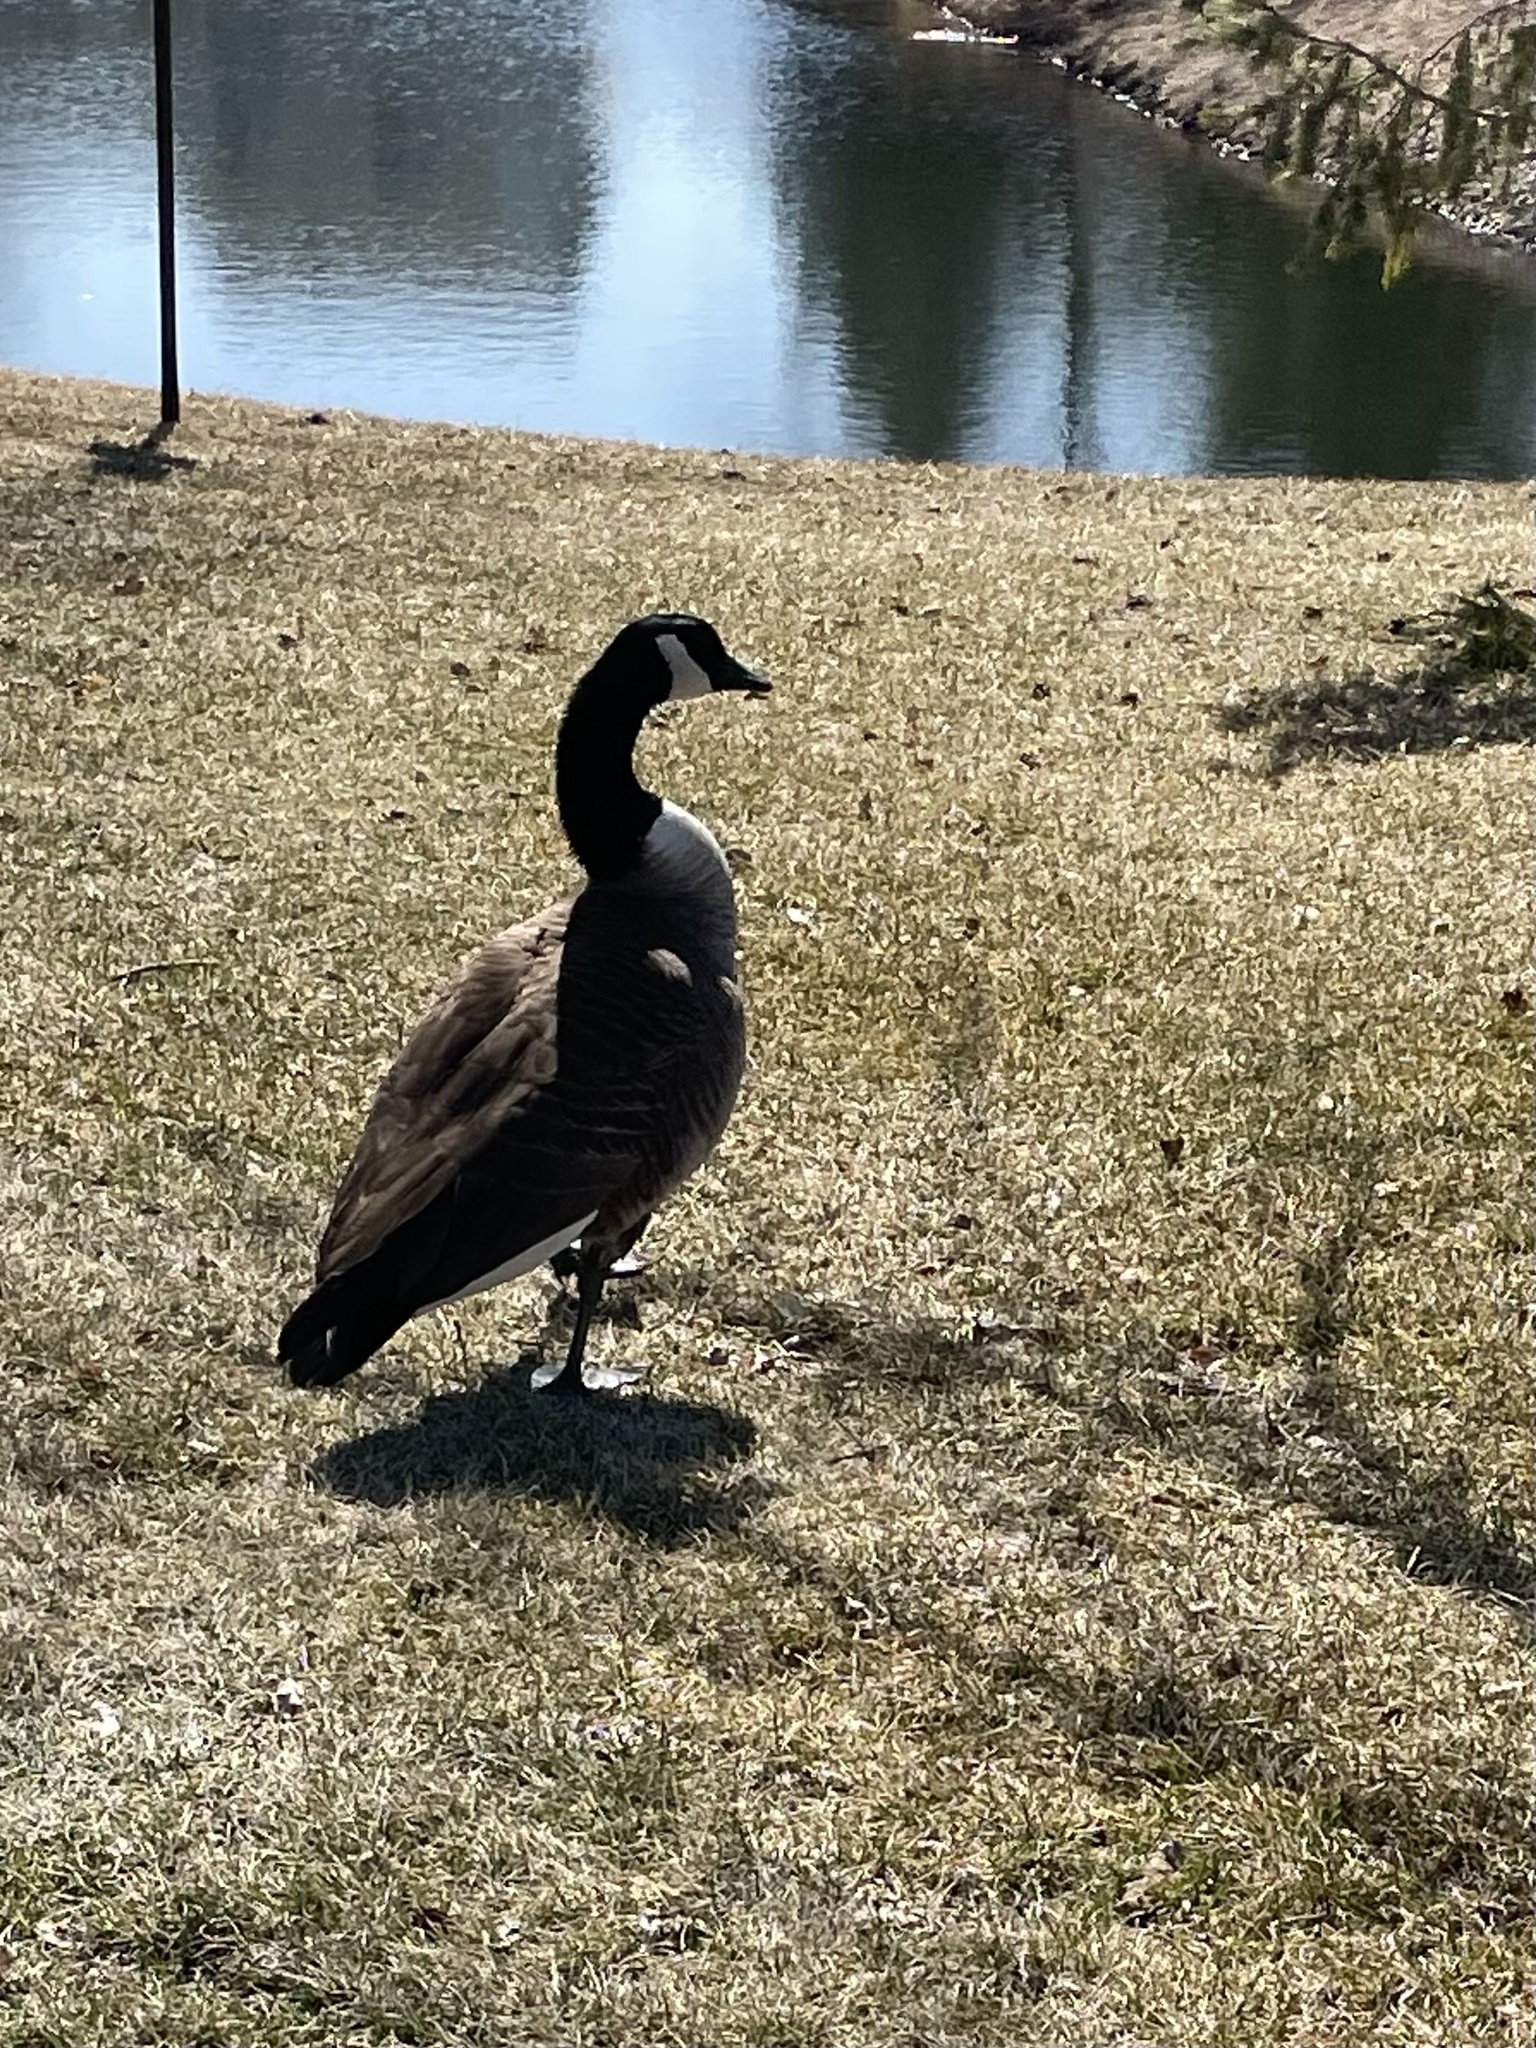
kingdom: Animalia
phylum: Chordata
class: Aves
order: Anseriformes
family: Anatidae
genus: Branta
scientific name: Branta canadensis
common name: Canada goose
